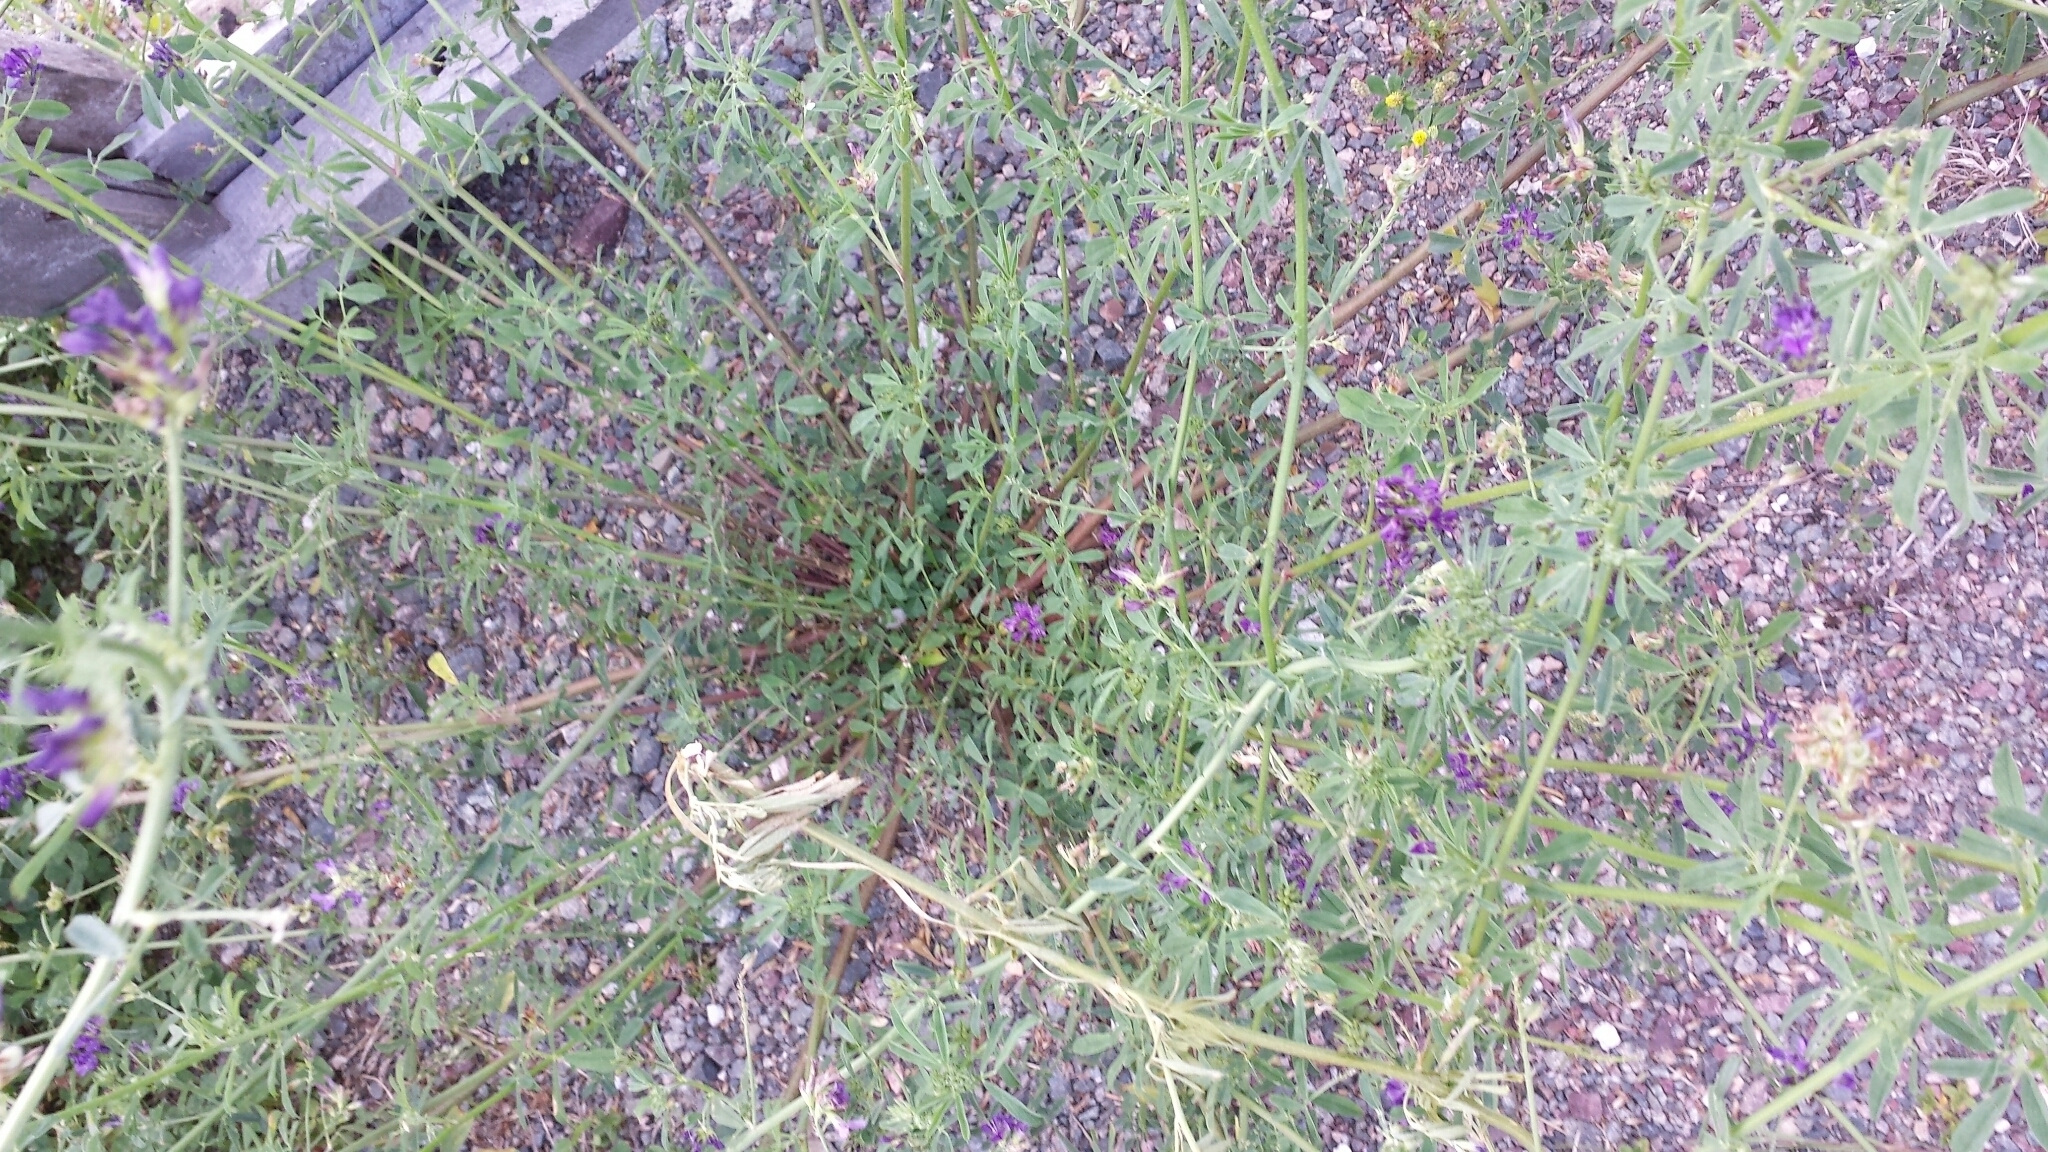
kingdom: Plantae
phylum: Tracheophyta
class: Magnoliopsida
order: Fabales
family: Fabaceae
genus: Medicago
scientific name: Medicago sativa
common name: Alfalfa
